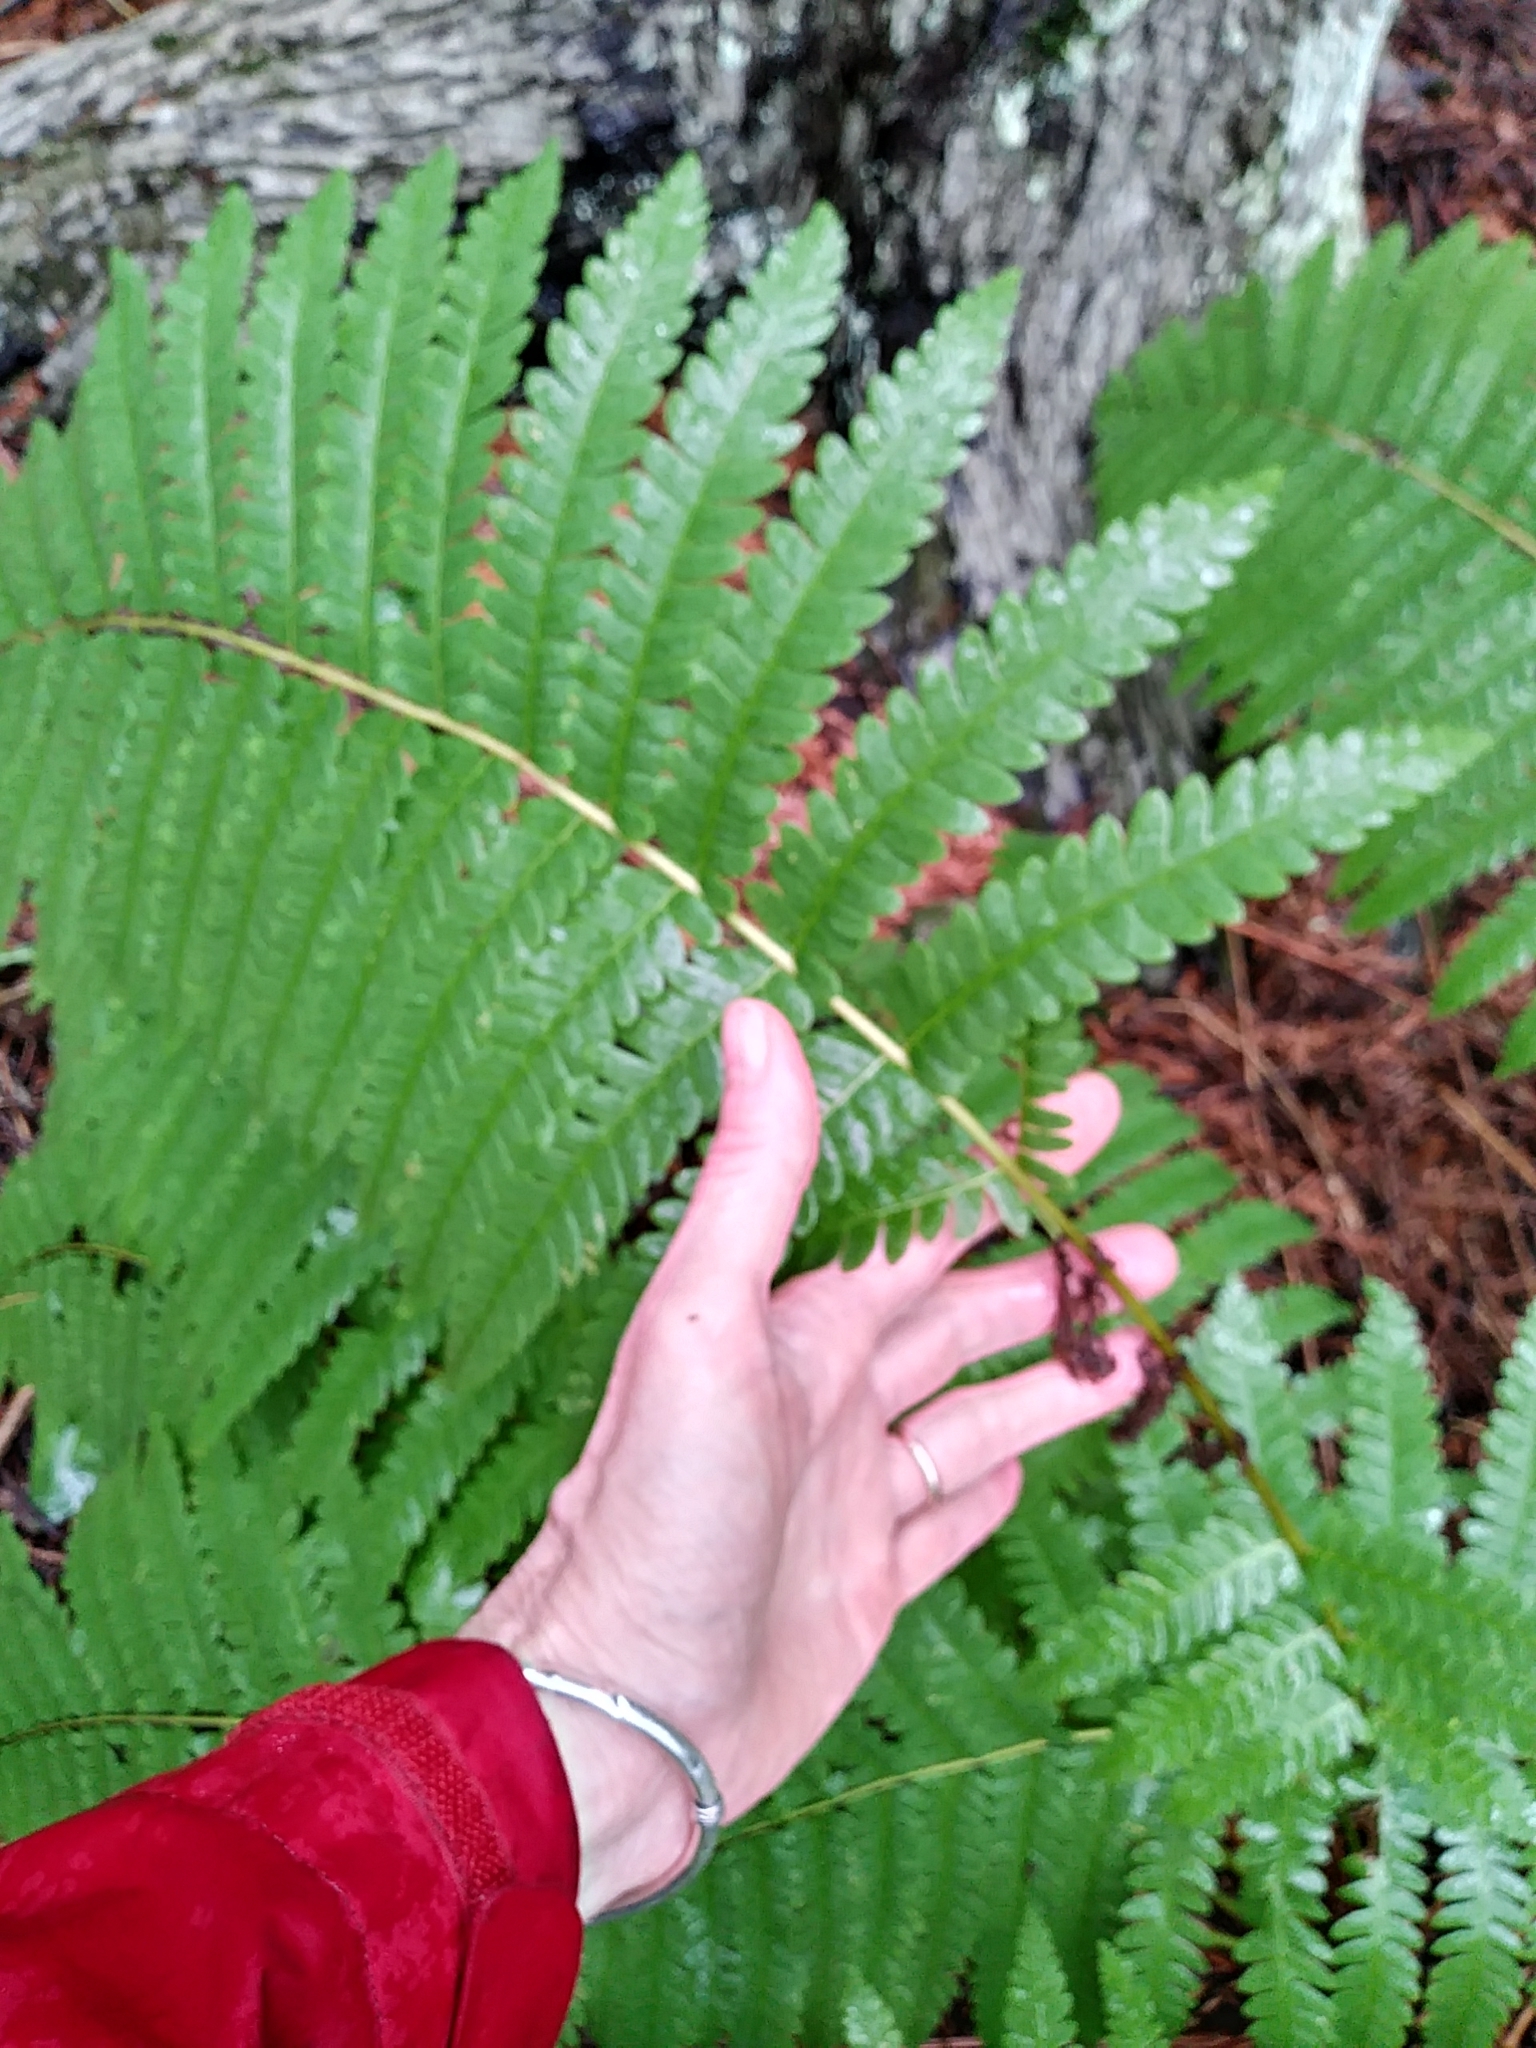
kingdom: Plantae
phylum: Tracheophyta
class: Polypodiopsida
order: Osmundales
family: Osmundaceae
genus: Claytosmunda
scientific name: Claytosmunda claytoniana
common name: Clayton's fern
